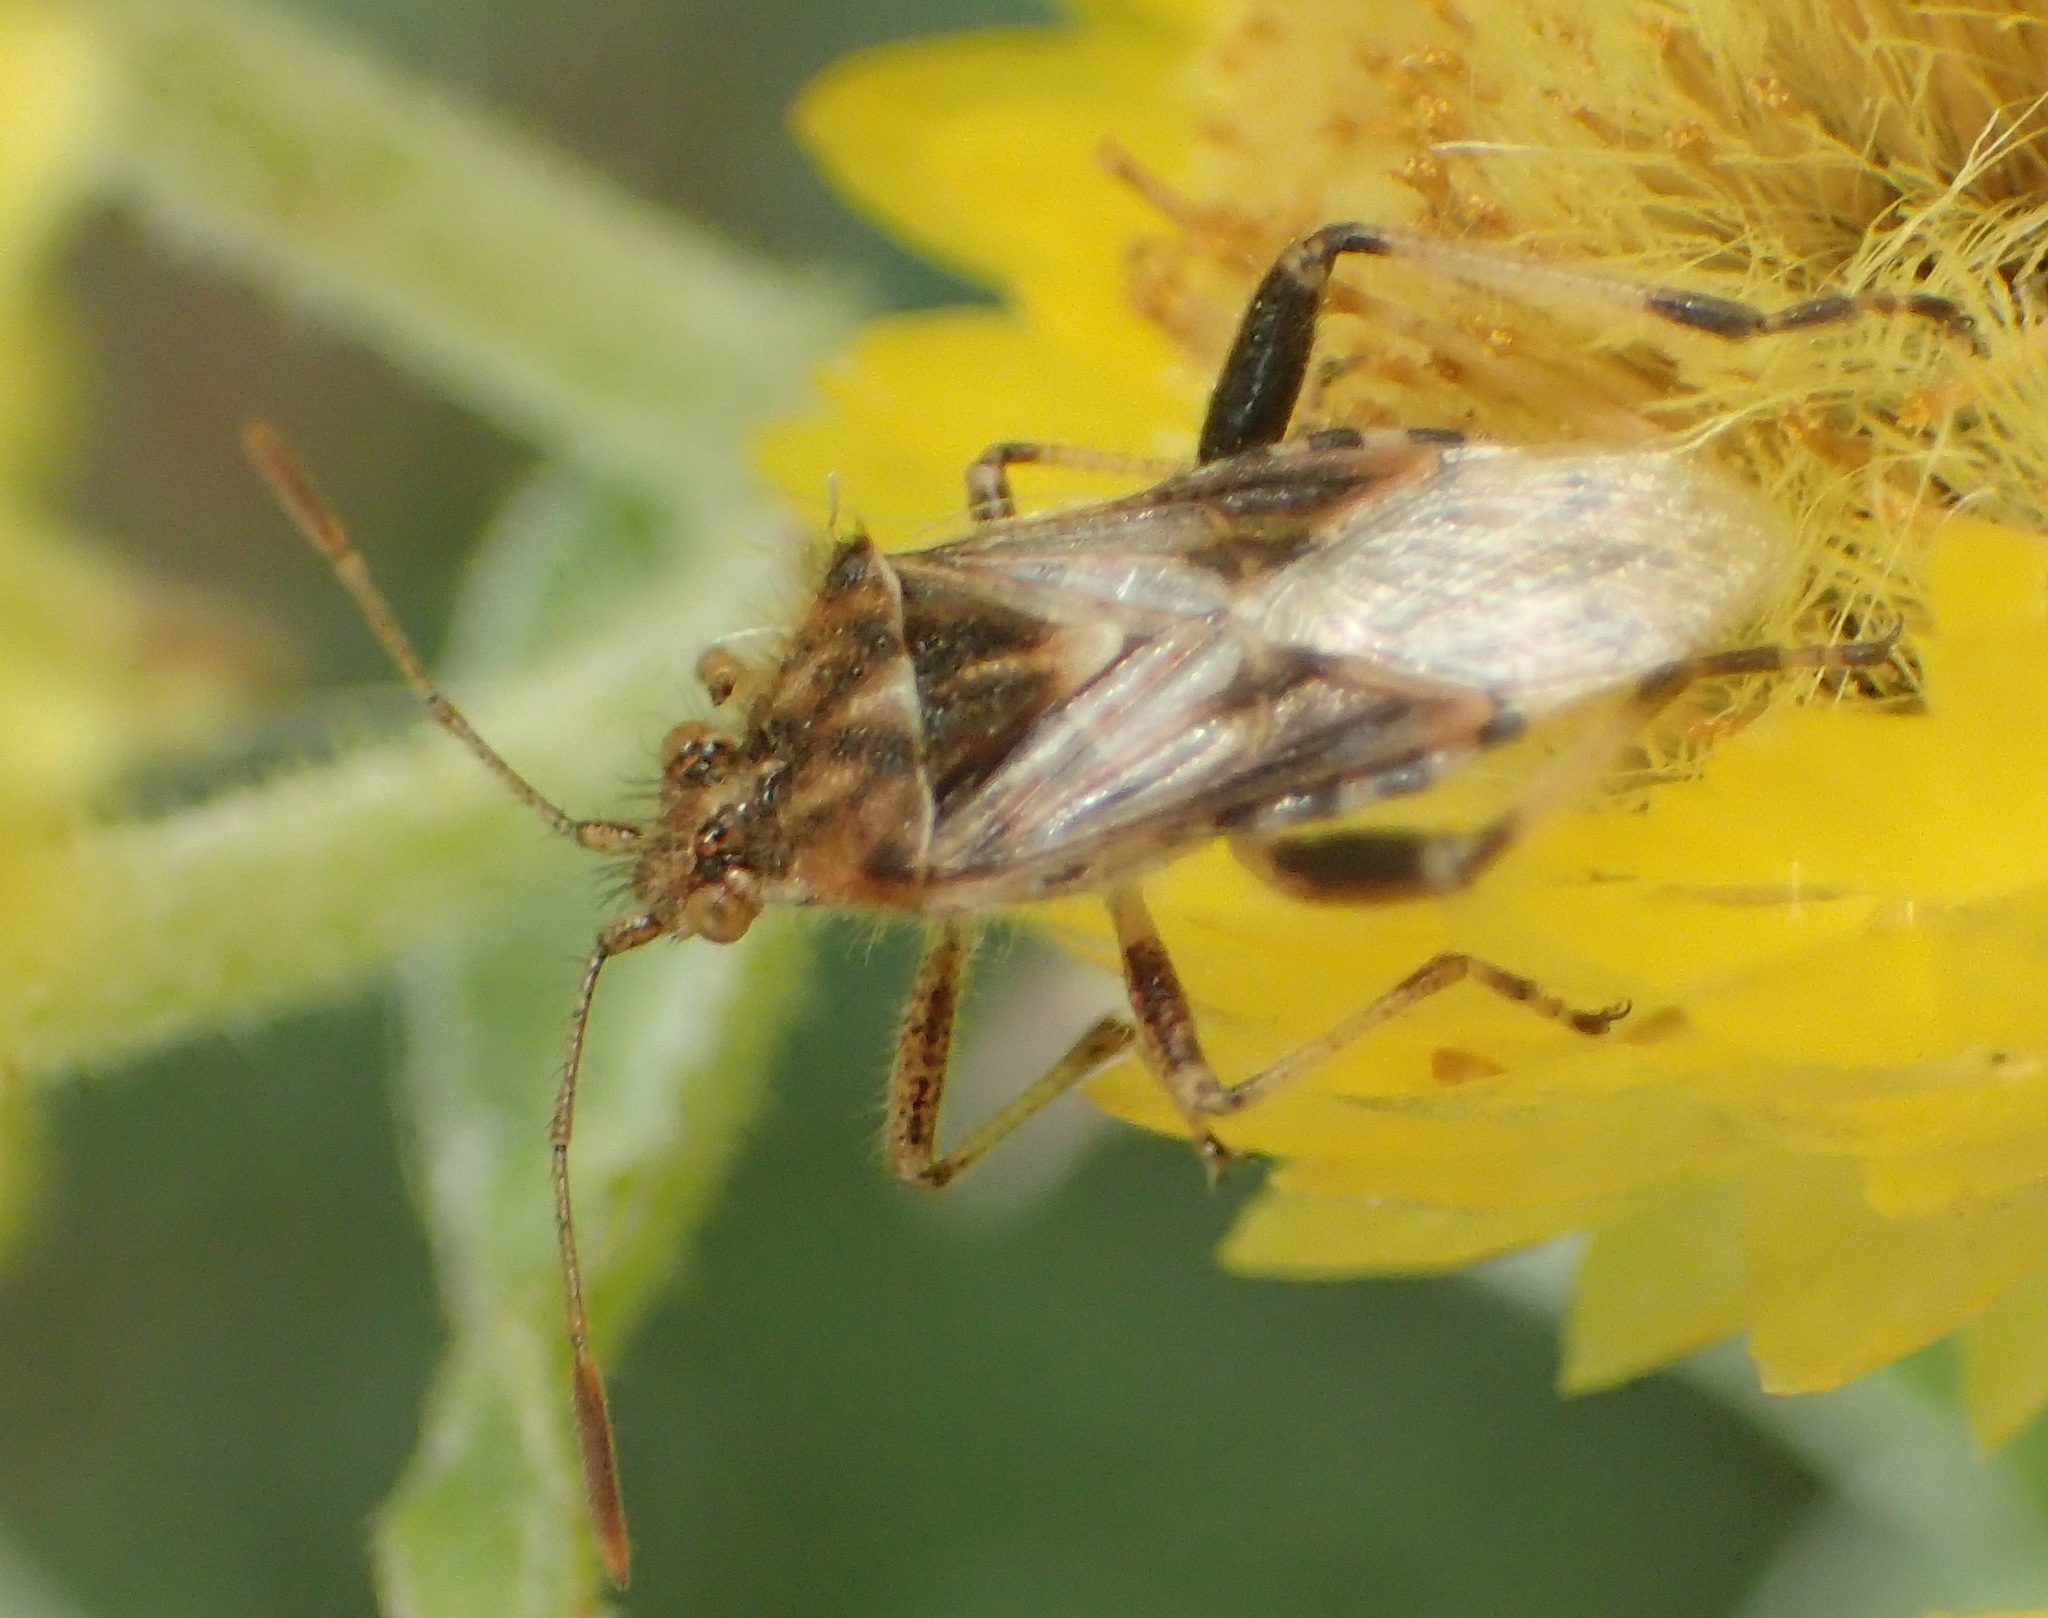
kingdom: Animalia
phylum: Arthropoda
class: Insecta
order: Hemiptera
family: Rhopalidae
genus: Stictopleurus
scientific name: Stictopleurus scutellaris
